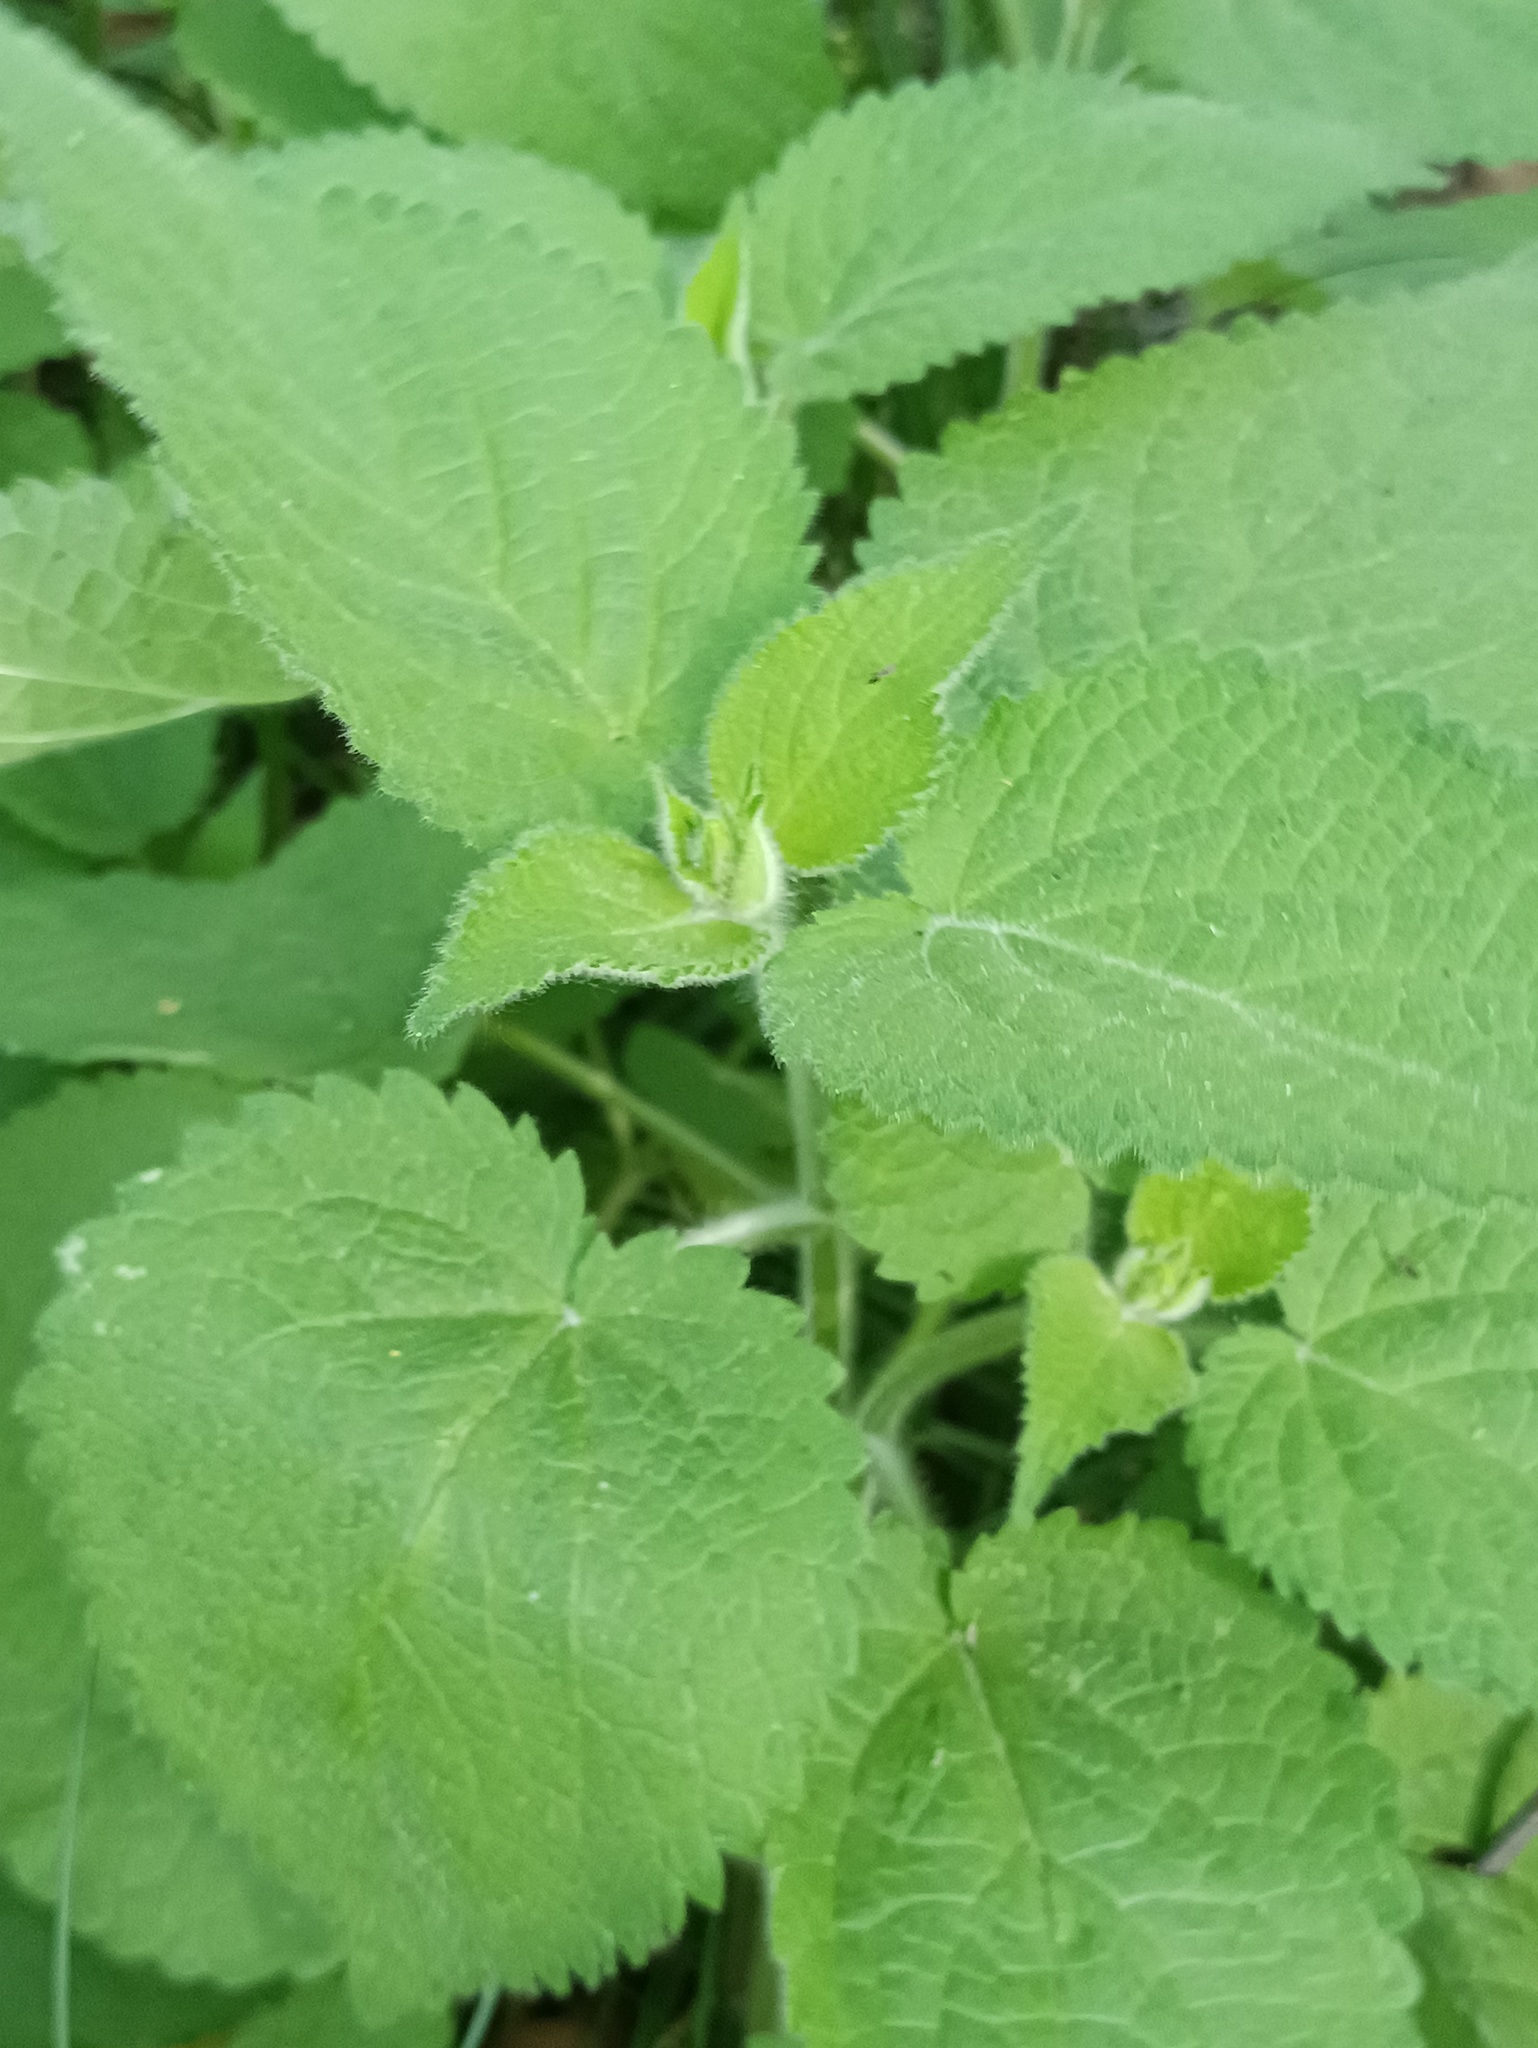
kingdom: Plantae
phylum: Tracheophyta
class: Magnoliopsida
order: Lamiales
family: Lamiaceae
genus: Stachys
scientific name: Stachys sylvatica
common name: Hedge woundwort
